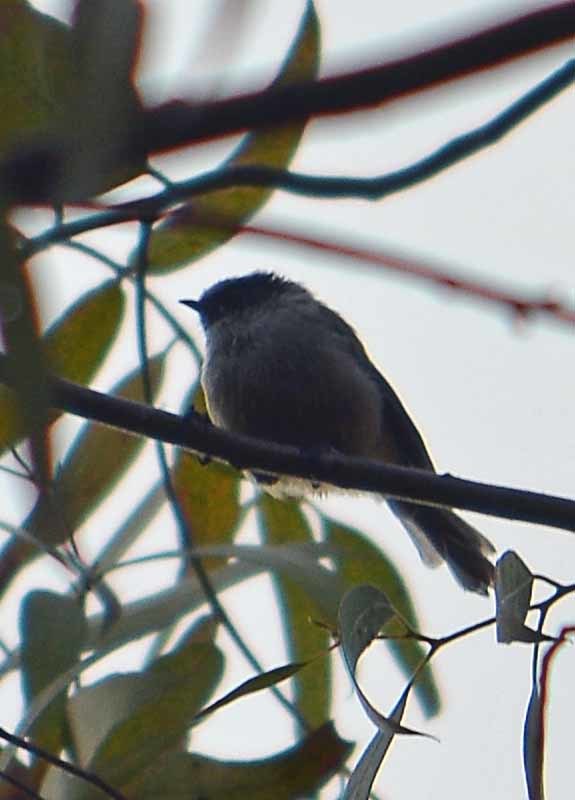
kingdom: Animalia
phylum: Chordata
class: Aves
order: Passeriformes
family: Aegithalidae
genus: Psaltriparus
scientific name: Psaltriparus minimus
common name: American bushtit
